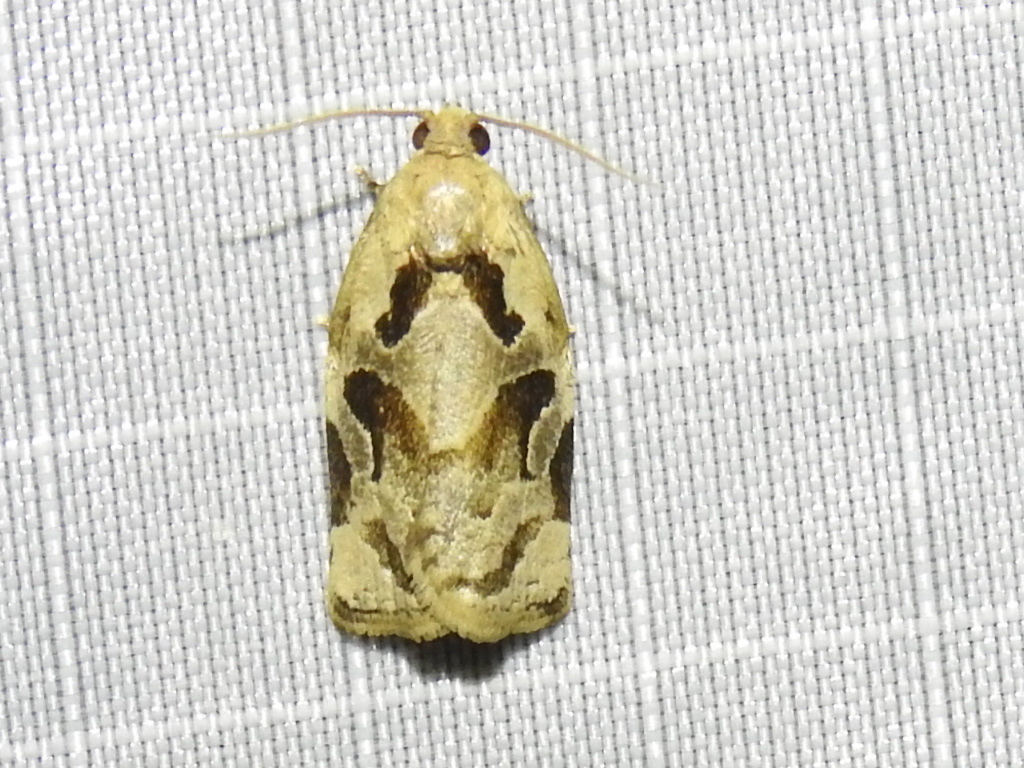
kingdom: Animalia
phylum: Arthropoda
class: Insecta
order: Lepidoptera
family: Tortricidae
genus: Archips
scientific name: Archips grisea
